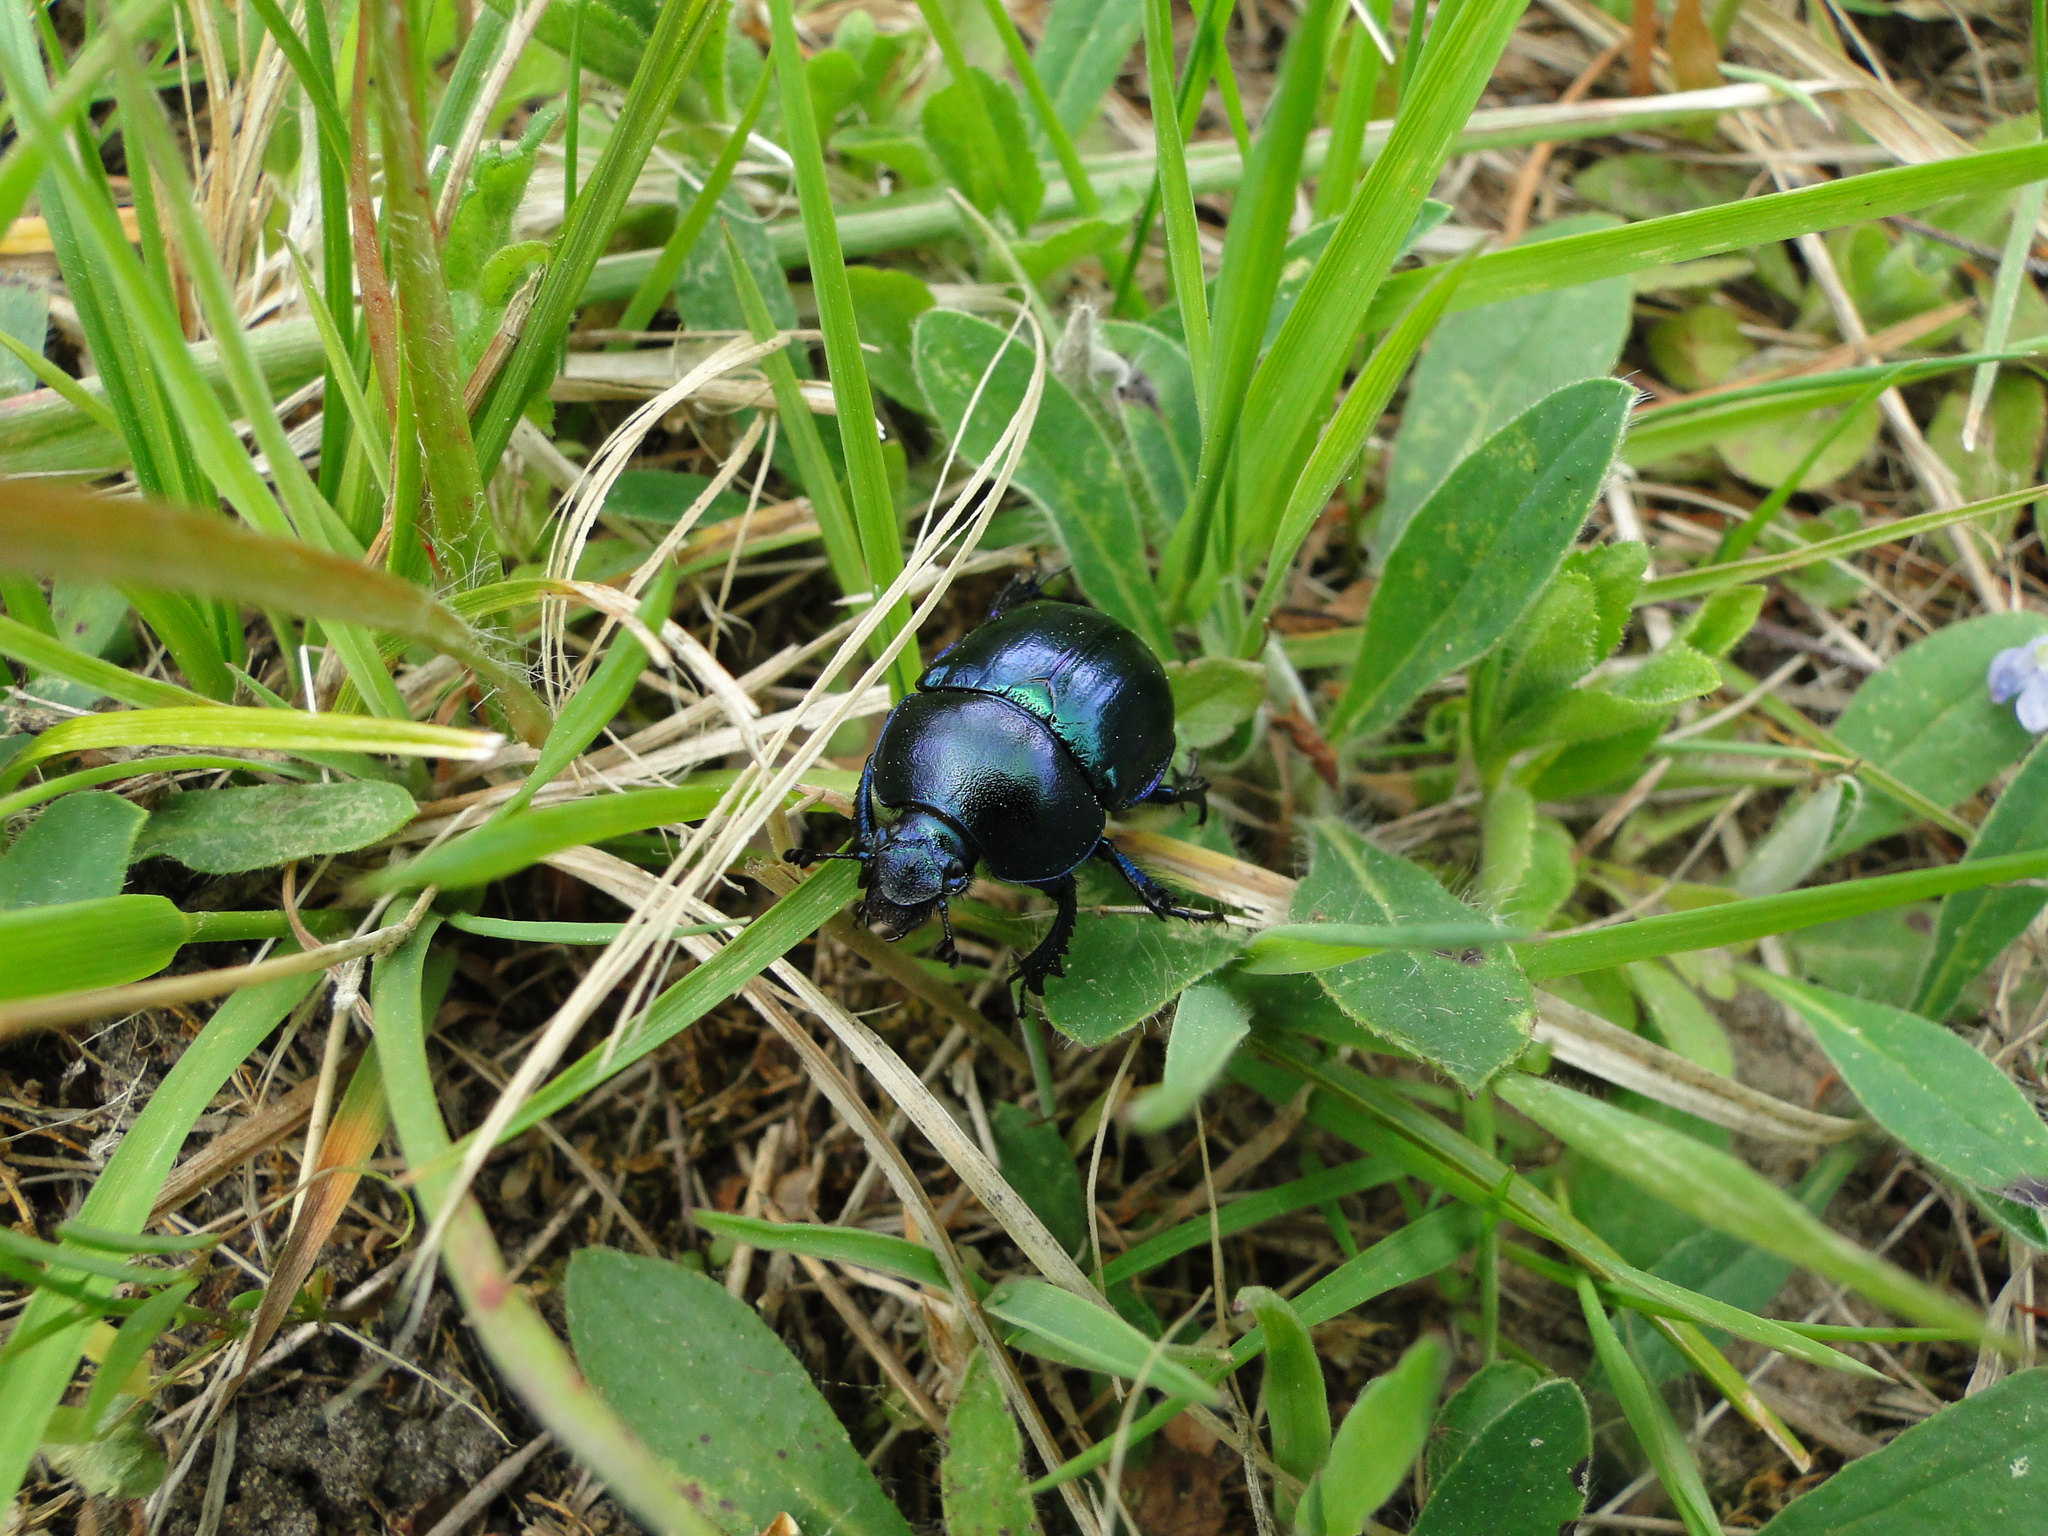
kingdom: Animalia
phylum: Arthropoda
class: Insecta
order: Coleoptera
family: Geotrupidae
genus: Trypocopris
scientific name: Trypocopris vernalis
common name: Spring dumbledor
